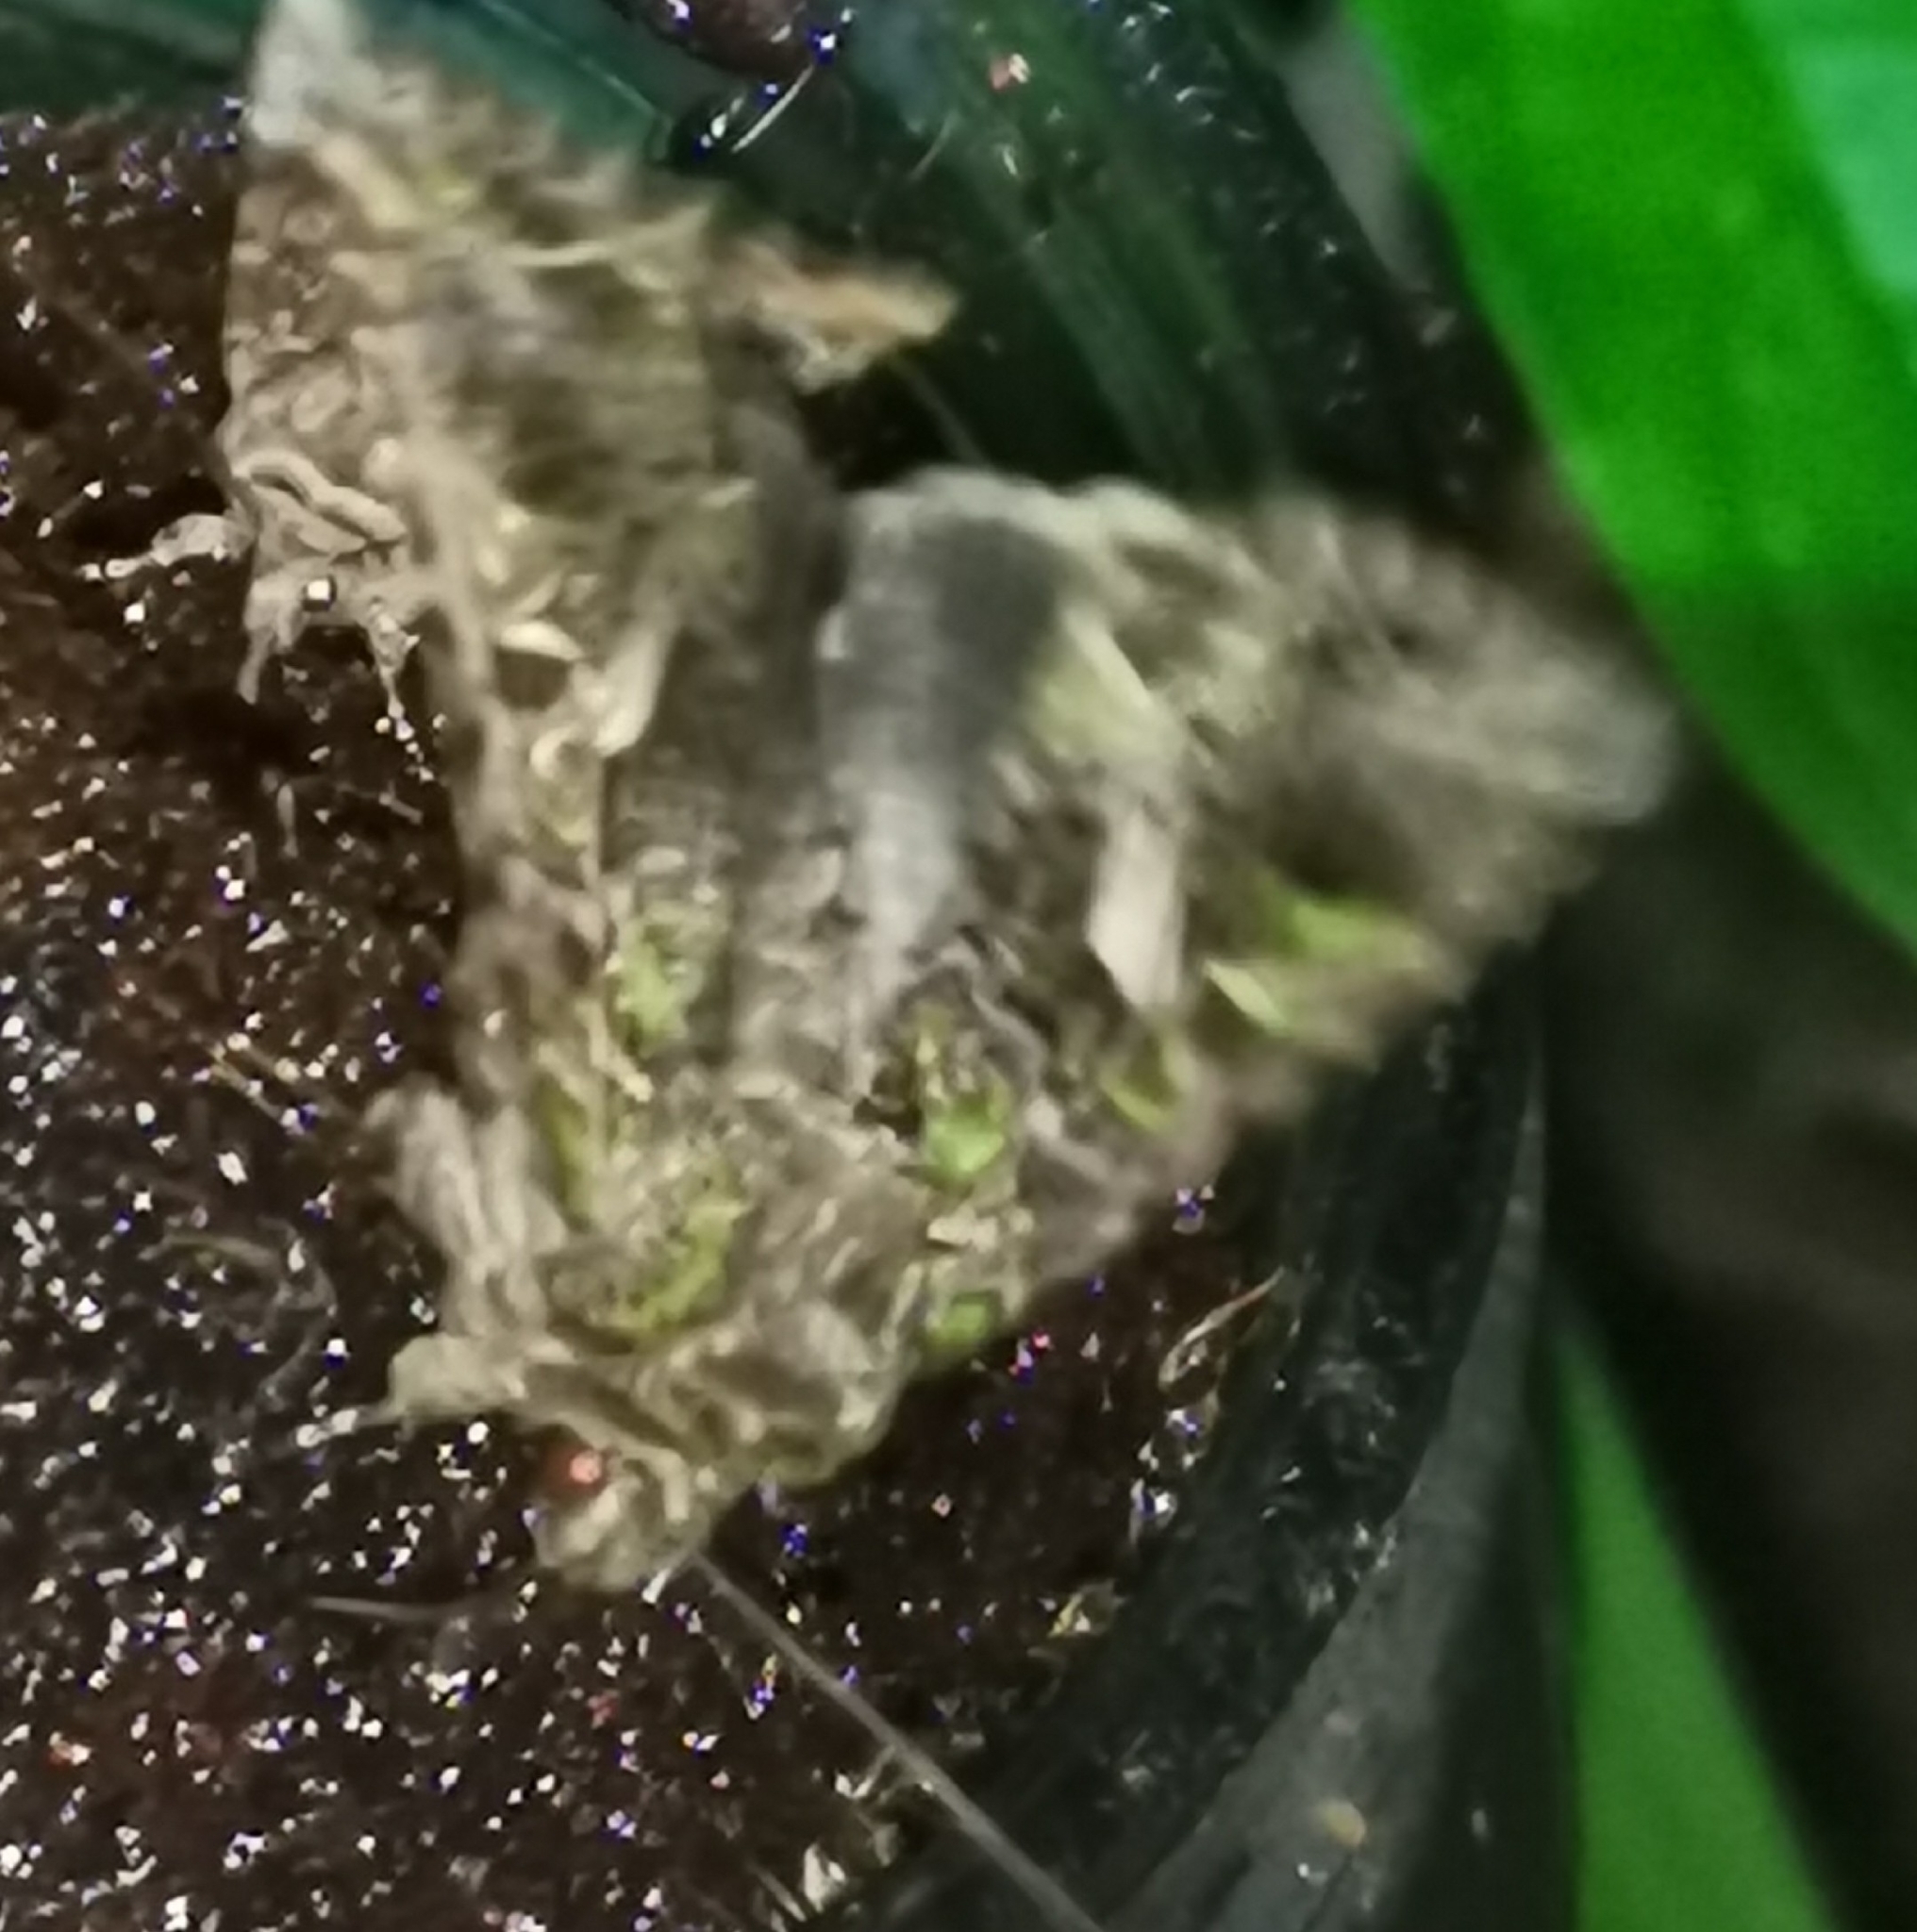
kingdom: Animalia
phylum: Arthropoda
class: Insecta
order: Lepidoptera
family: Noctuidae
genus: Trachea
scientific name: Trachea atriplicis
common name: Orache moth
